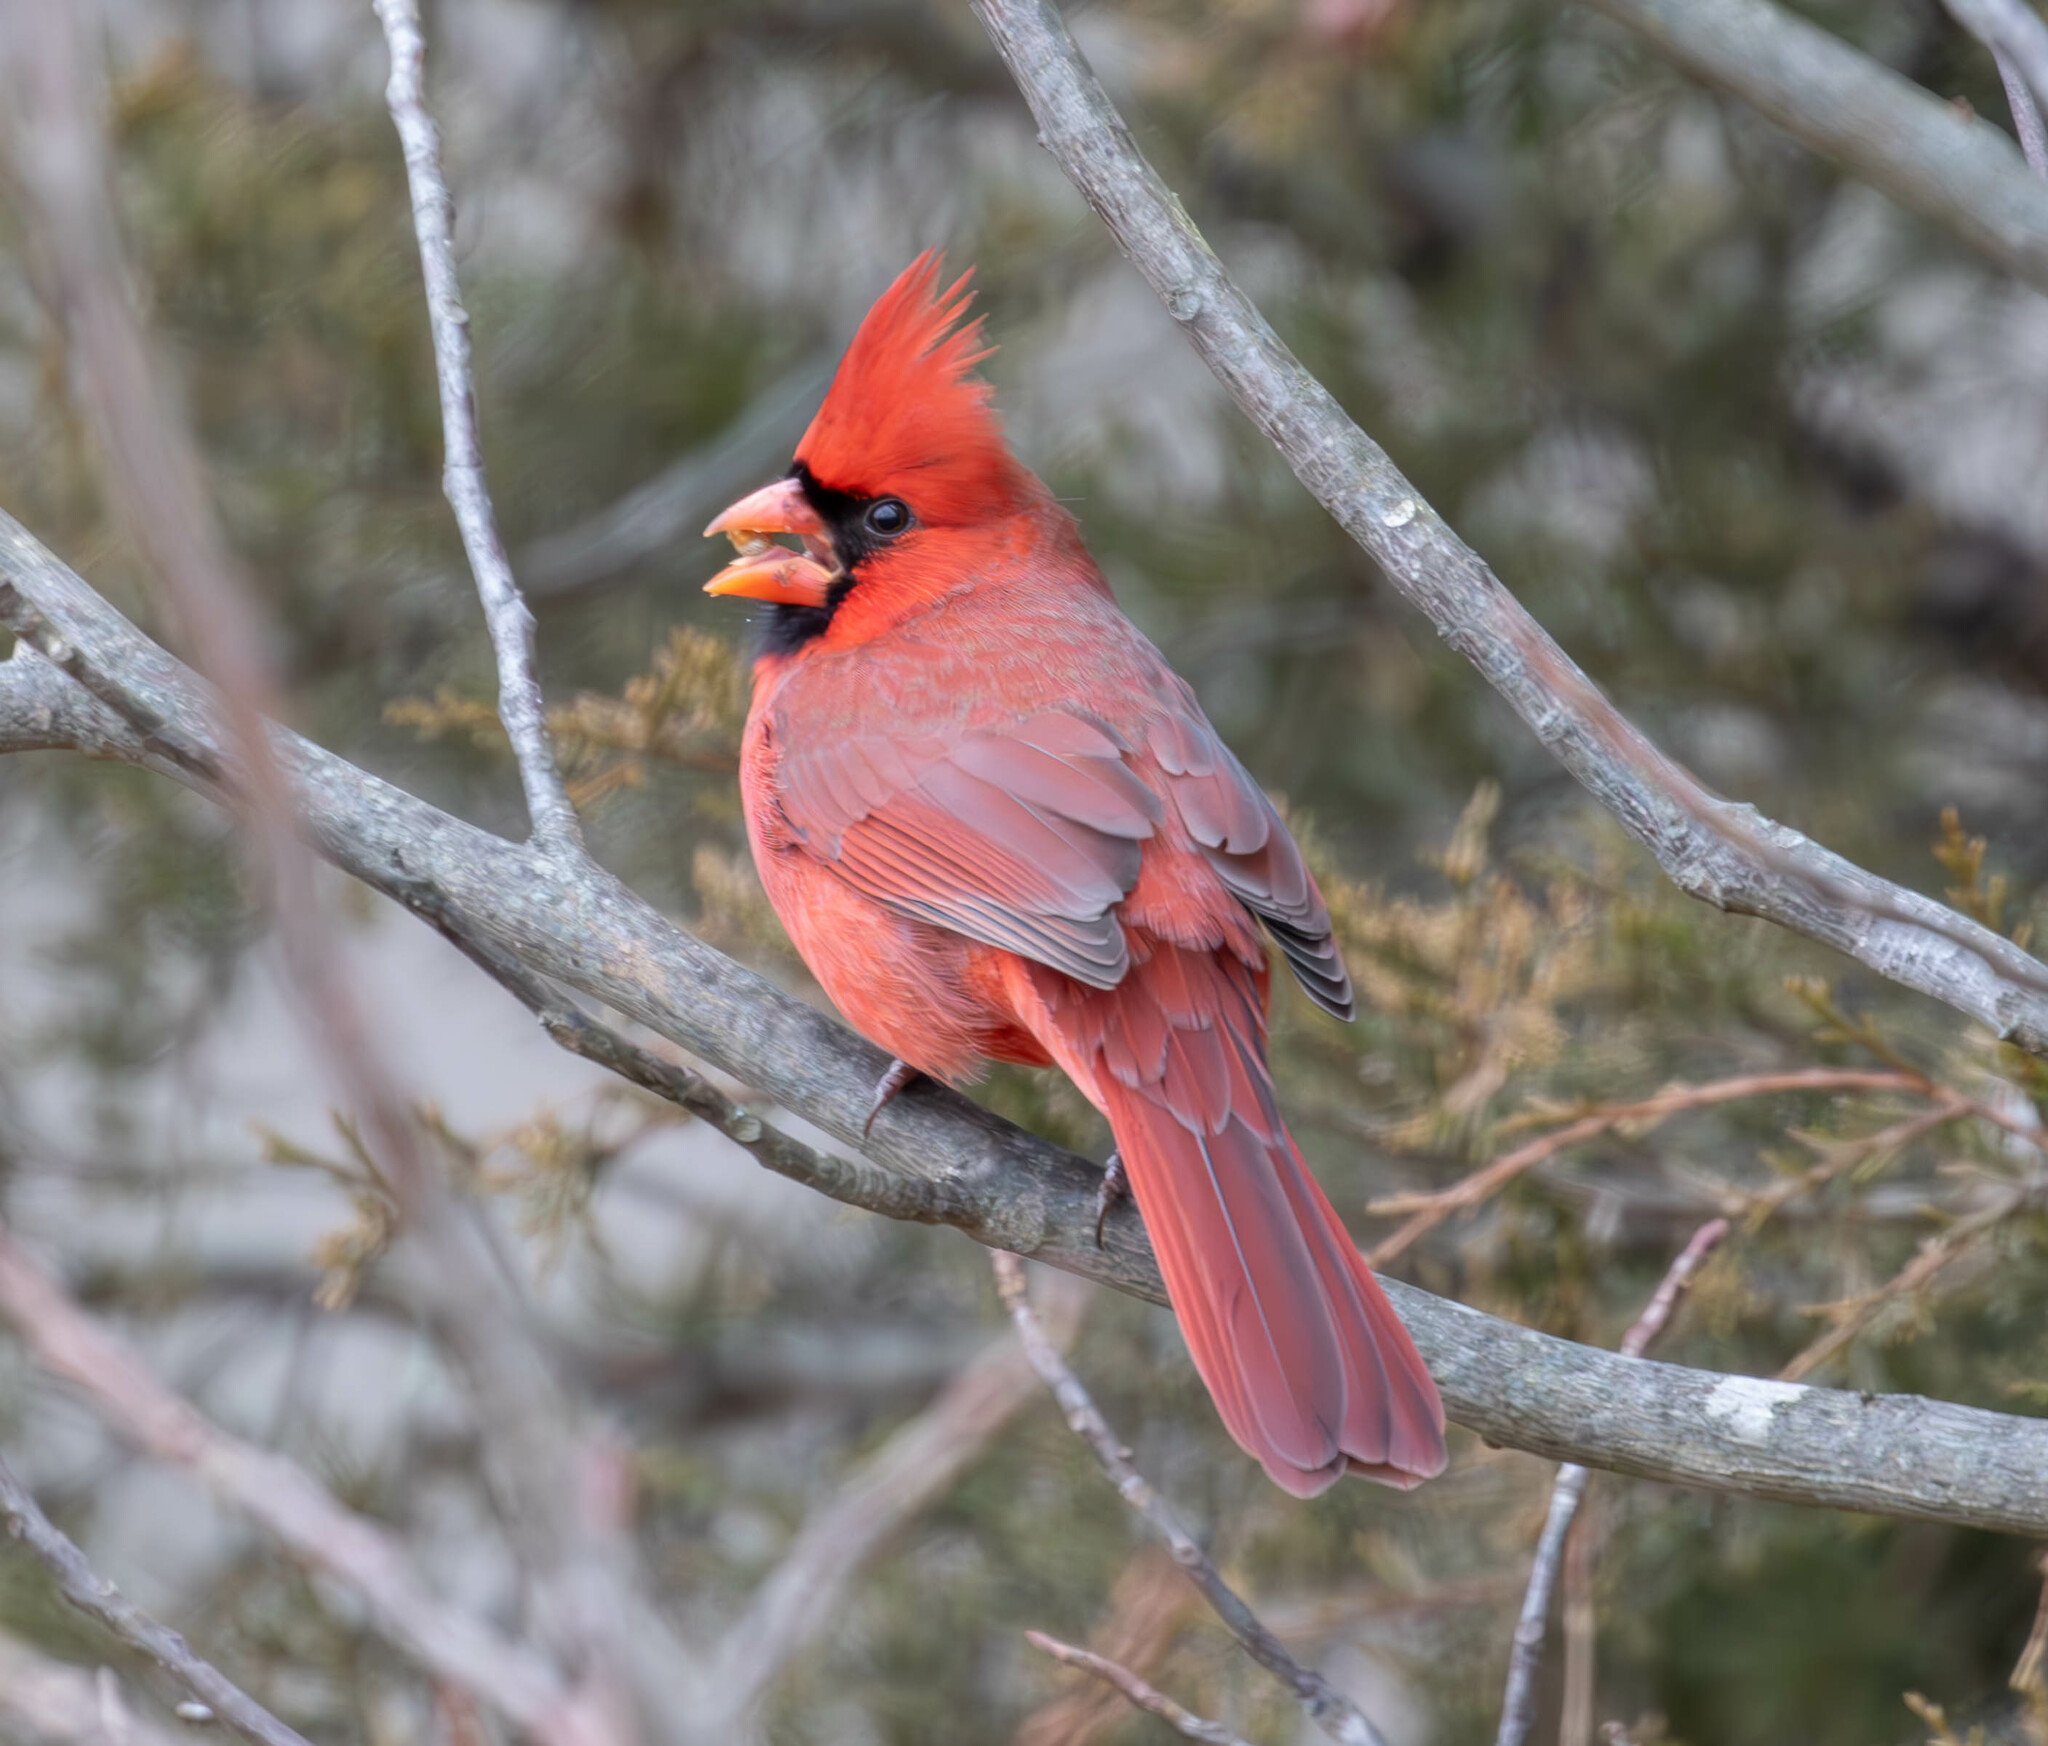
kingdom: Animalia
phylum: Chordata
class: Aves
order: Passeriformes
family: Cardinalidae
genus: Cardinalis
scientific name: Cardinalis cardinalis
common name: Northern cardinal
